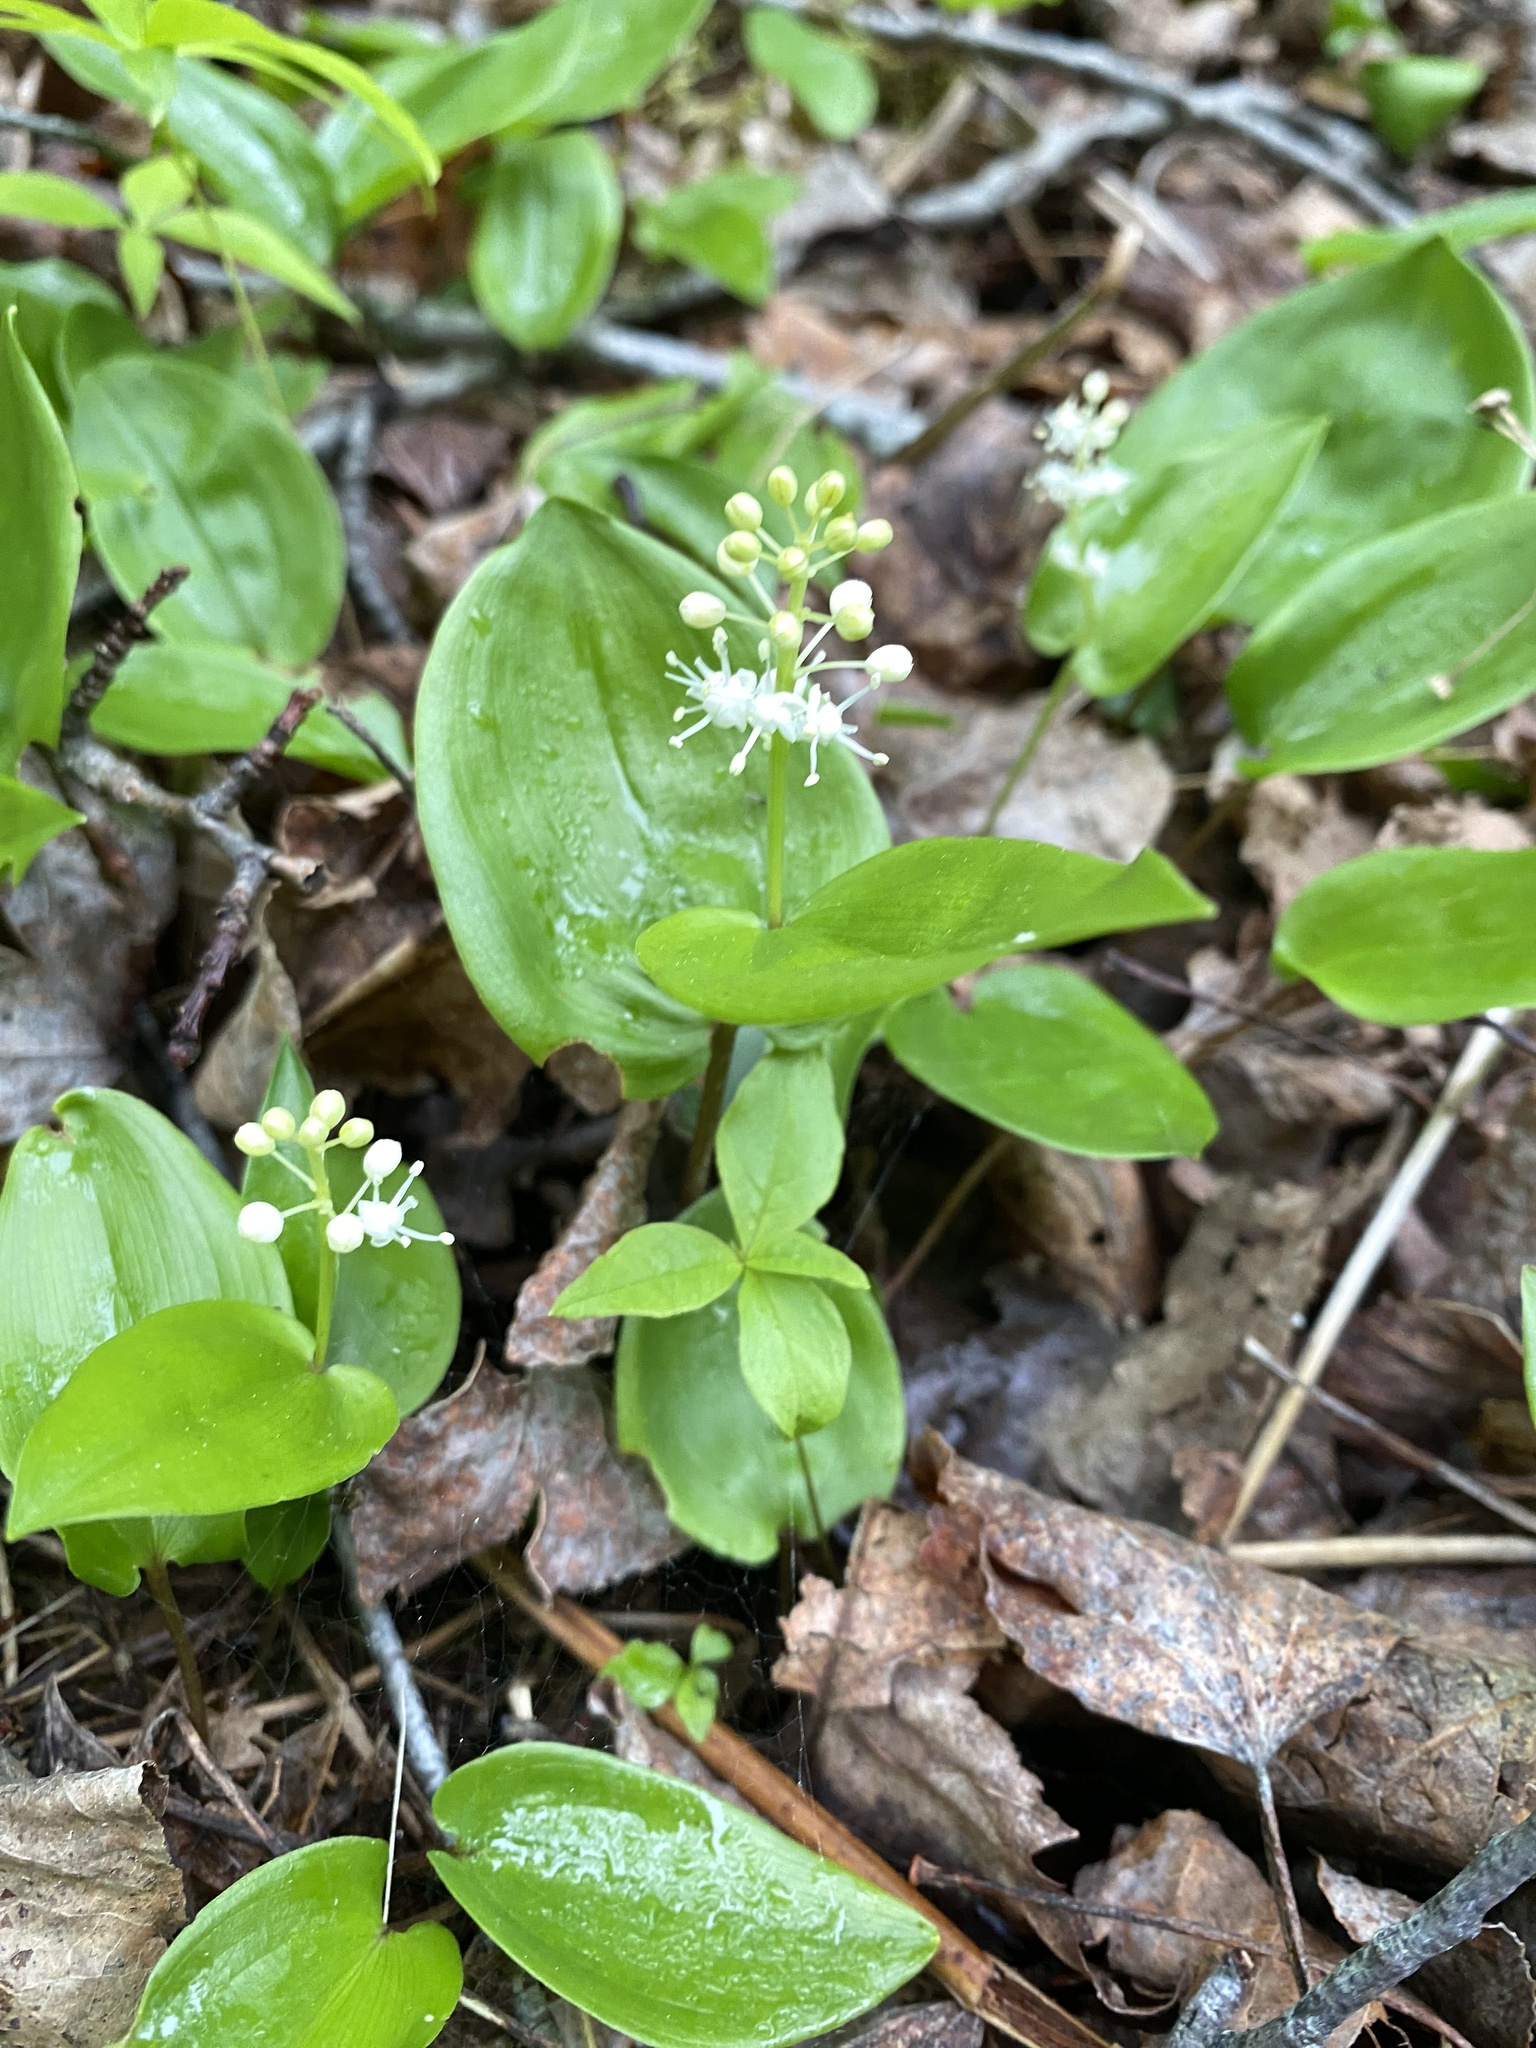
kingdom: Plantae
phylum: Tracheophyta
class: Liliopsida
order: Asparagales
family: Asparagaceae
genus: Maianthemum
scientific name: Maianthemum canadense
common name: False lily-of-the-valley
